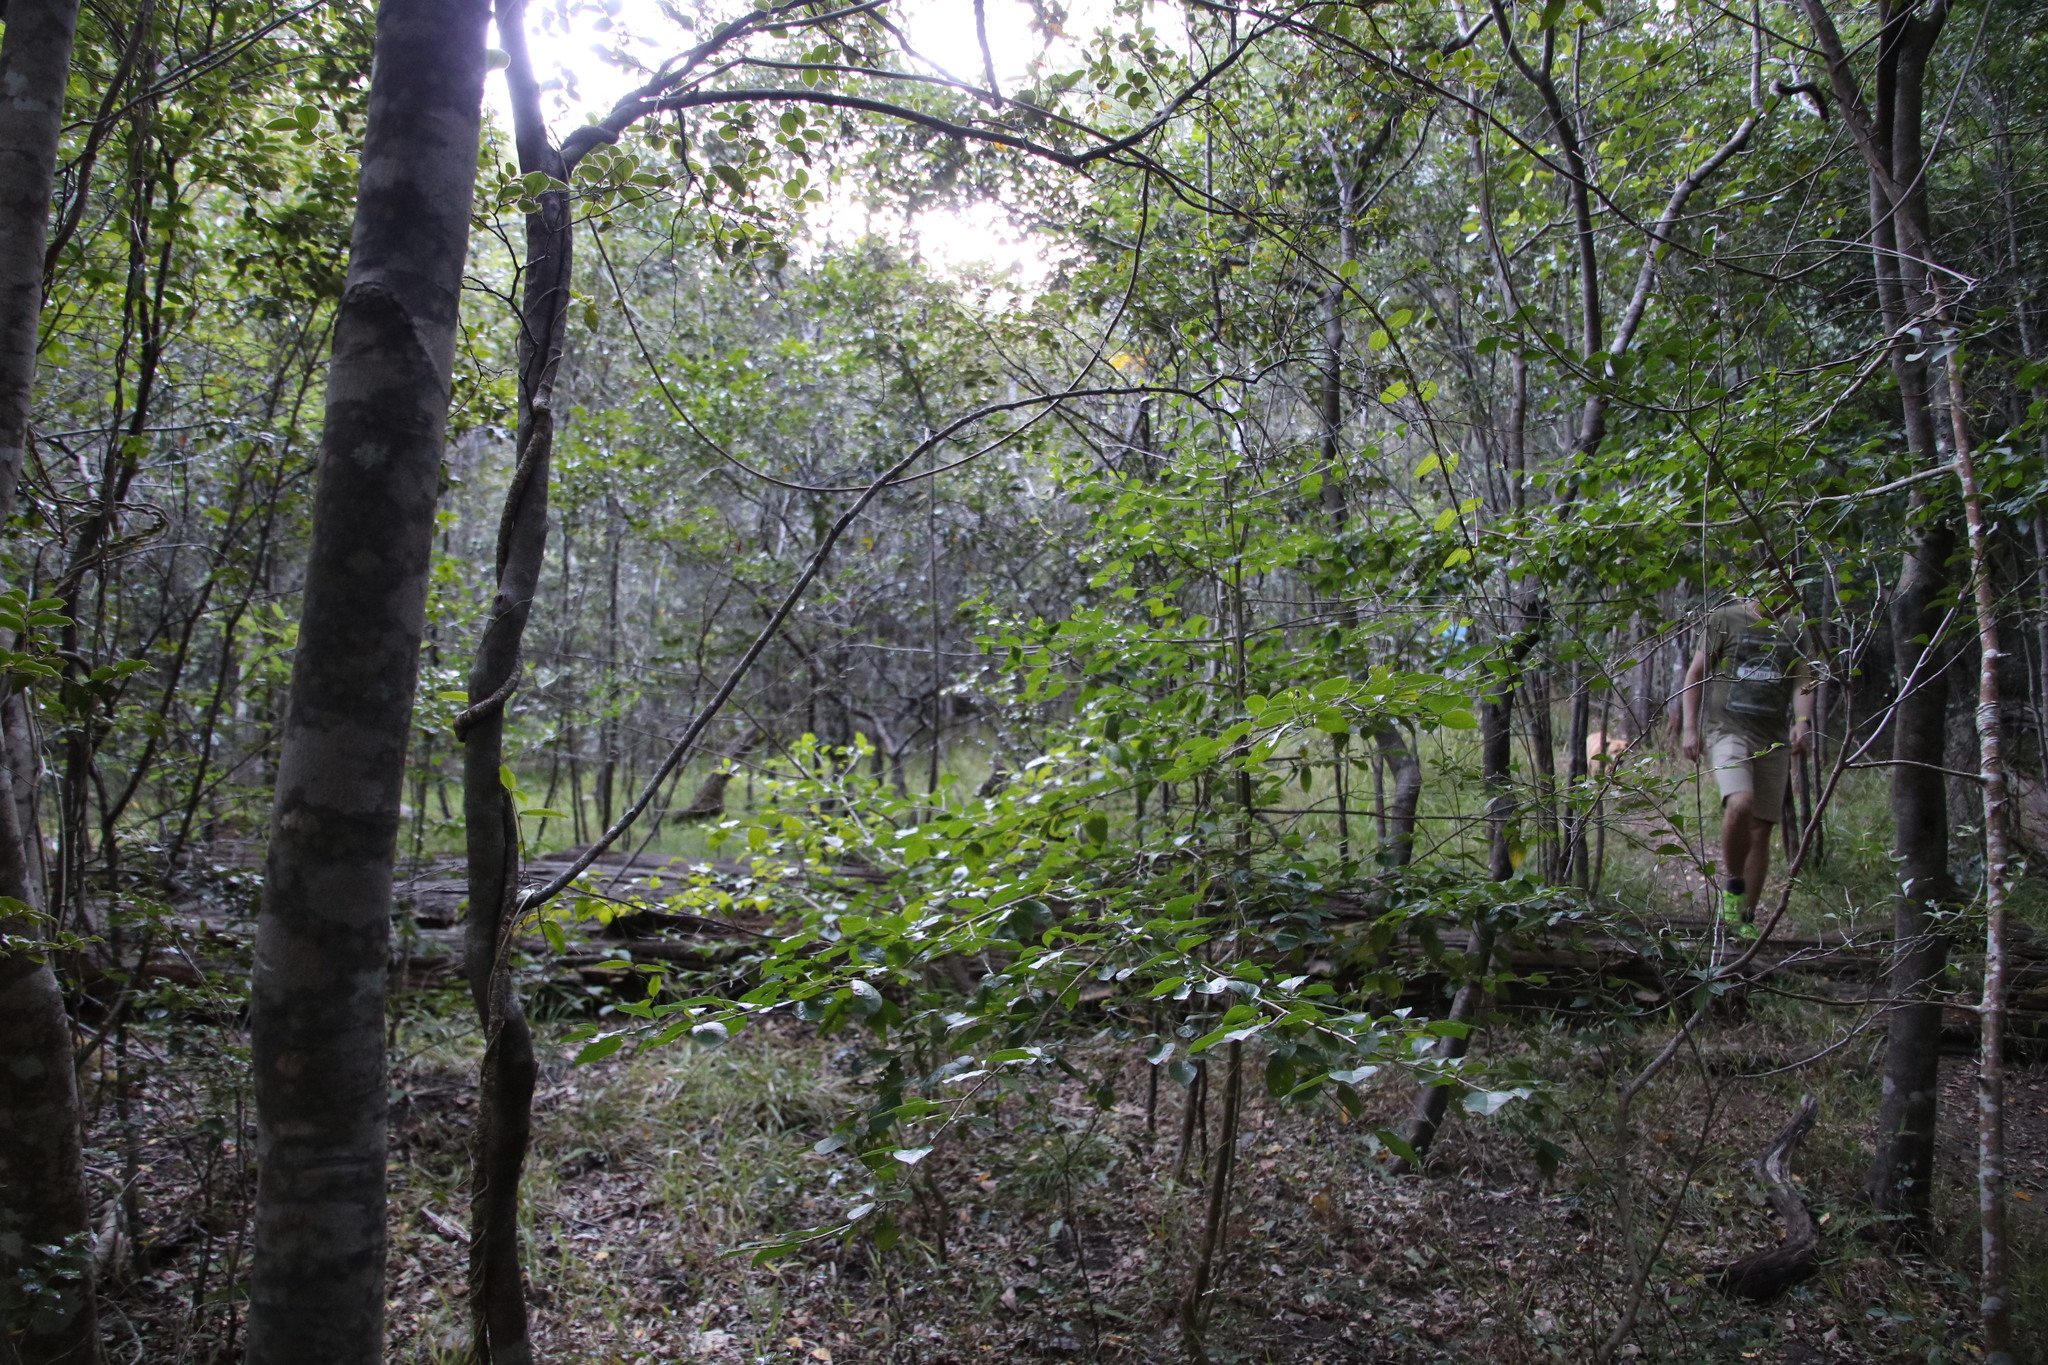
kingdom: Plantae
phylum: Tracheophyta
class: Magnoliopsida
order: Ericales
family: Ebenaceae
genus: Diospyros
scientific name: Diospyros whyteana
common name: Bladder-nut
